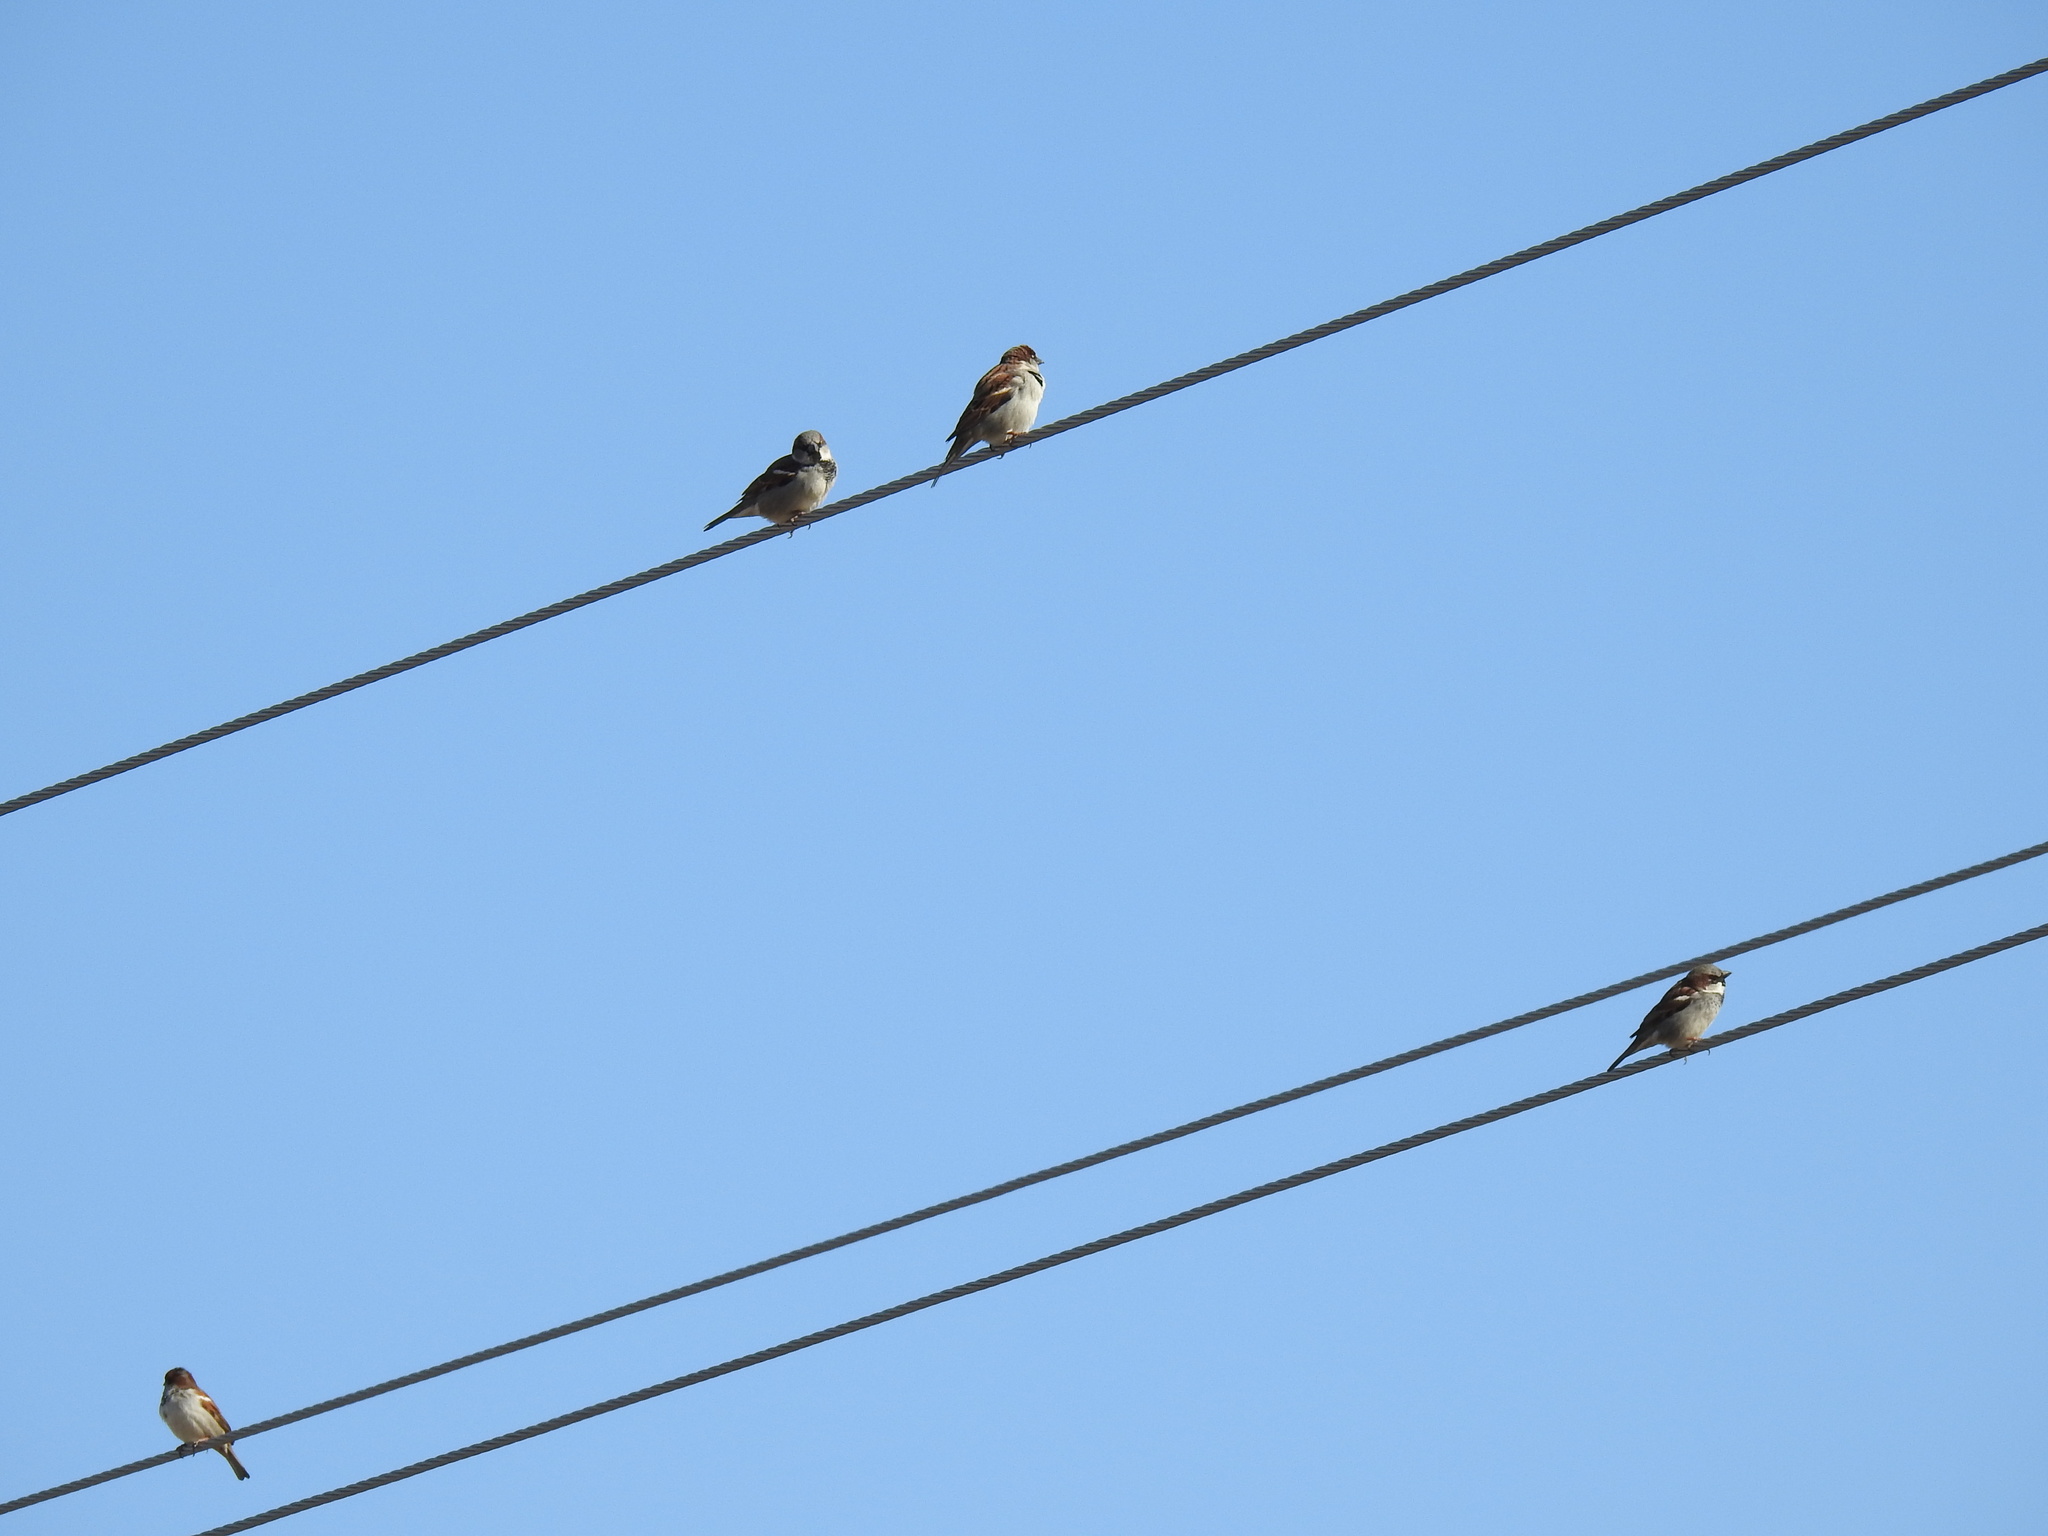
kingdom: Animalia
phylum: Chordata
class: Aves
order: Passeriformes
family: Passeridae
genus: Passer
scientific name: Passer domesticus
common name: House sparrow
